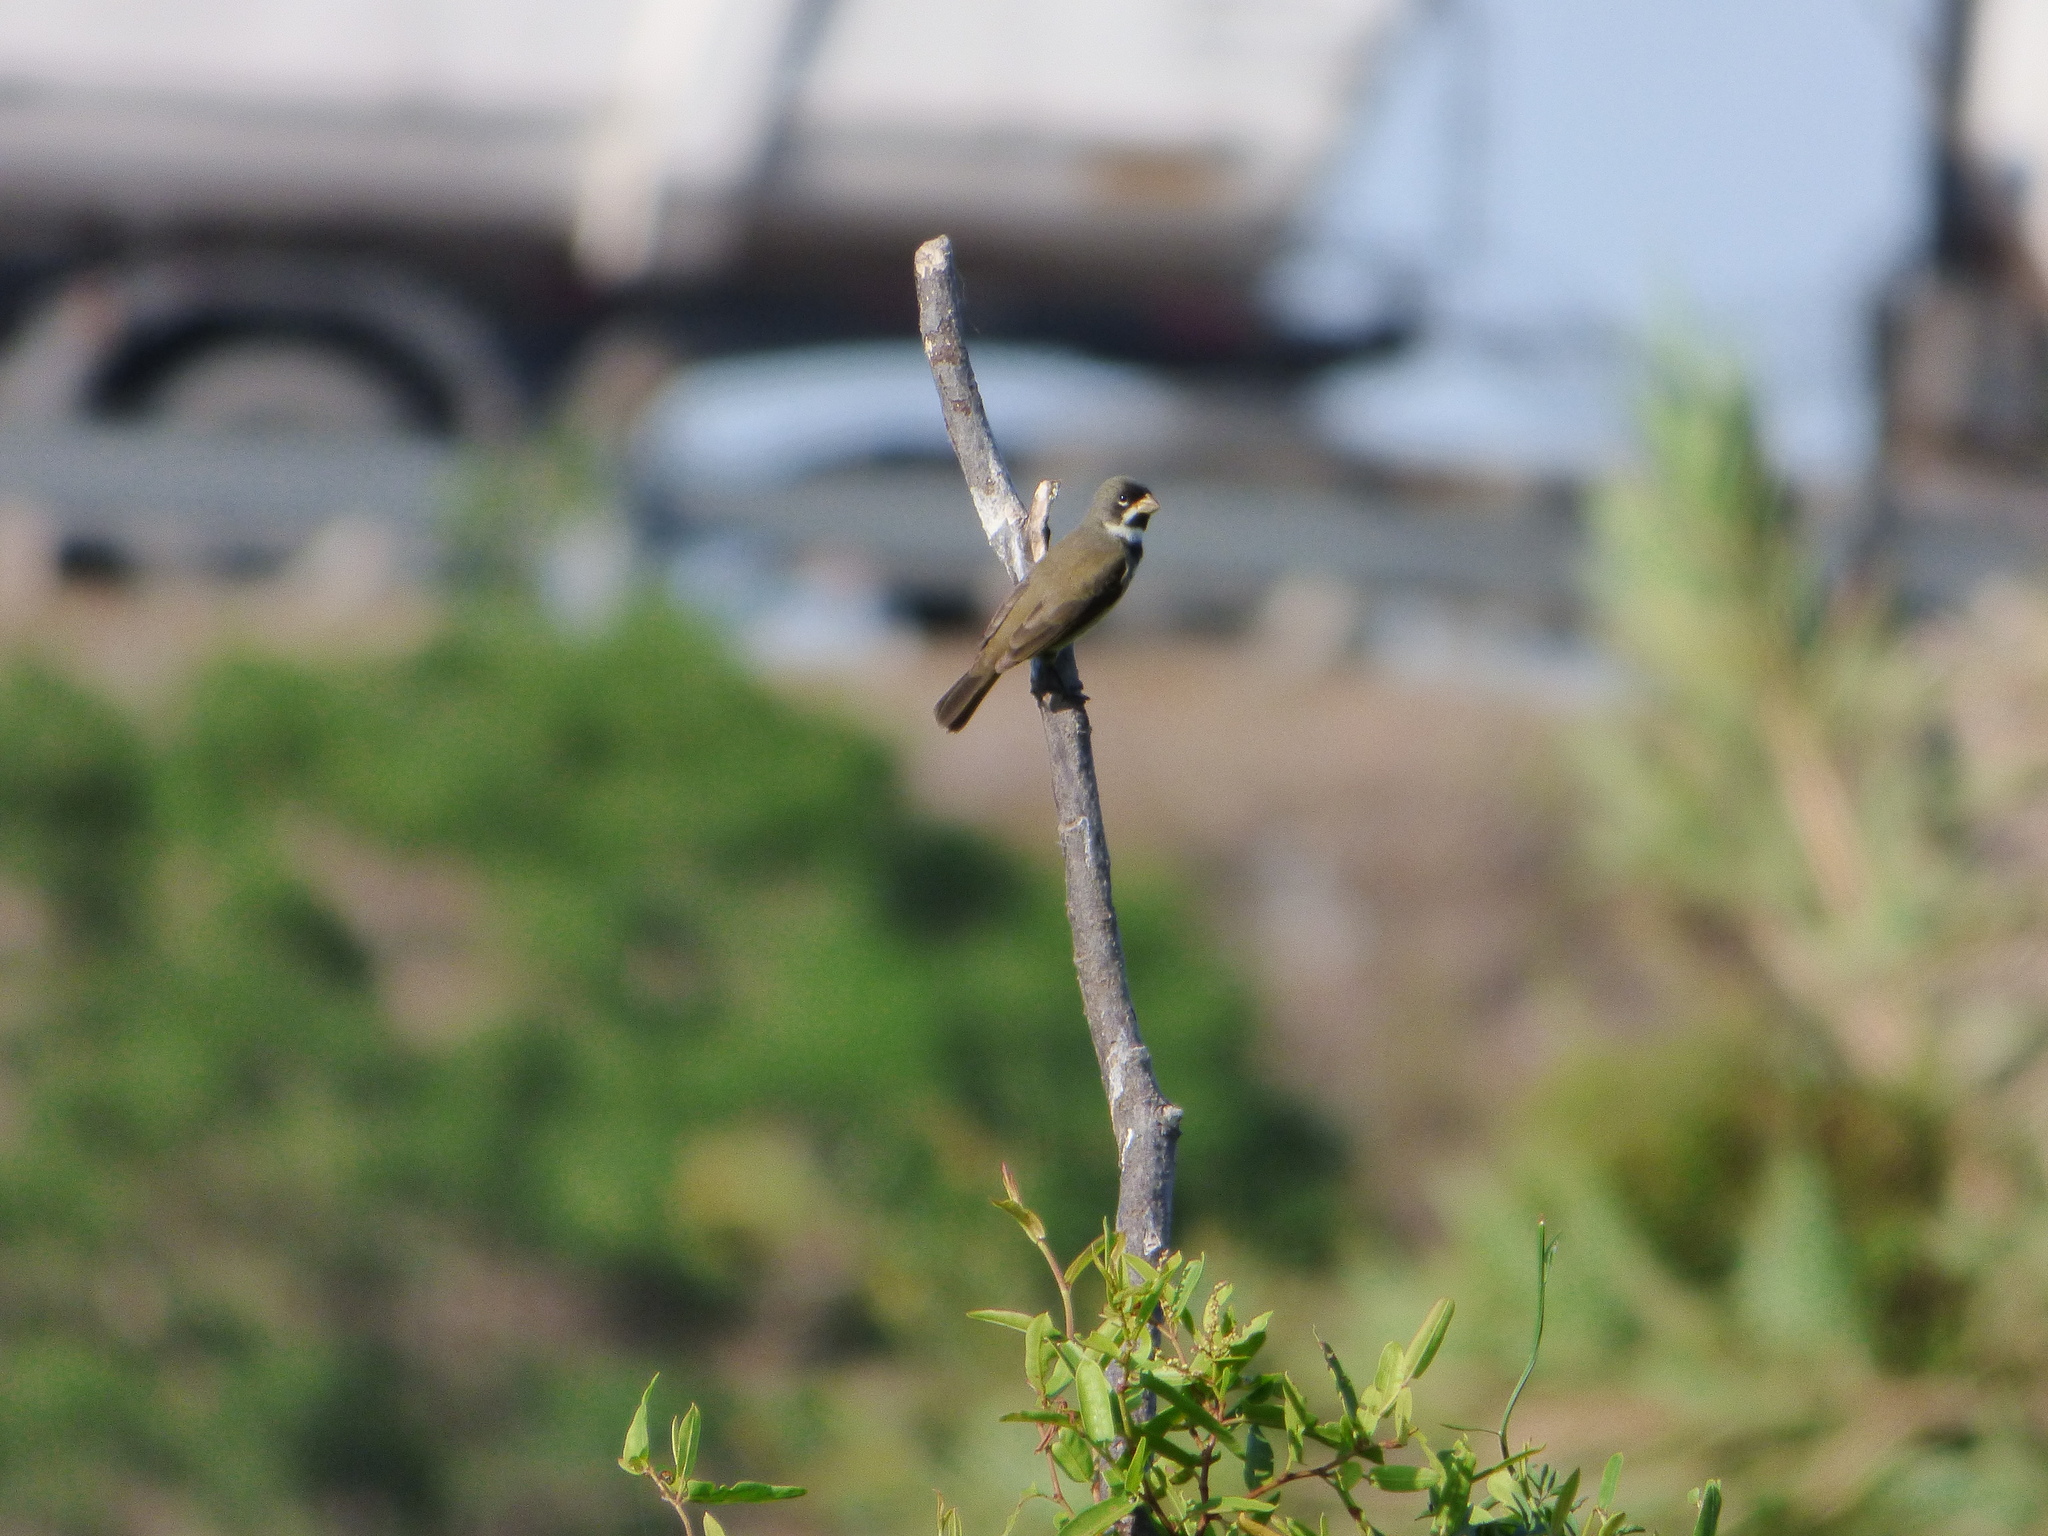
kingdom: Animalia
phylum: Chordata
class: Aves
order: Passeriformes
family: Thraupidae
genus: Sporophila
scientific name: Sporophila caerulescens
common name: Double-collared seedeater
